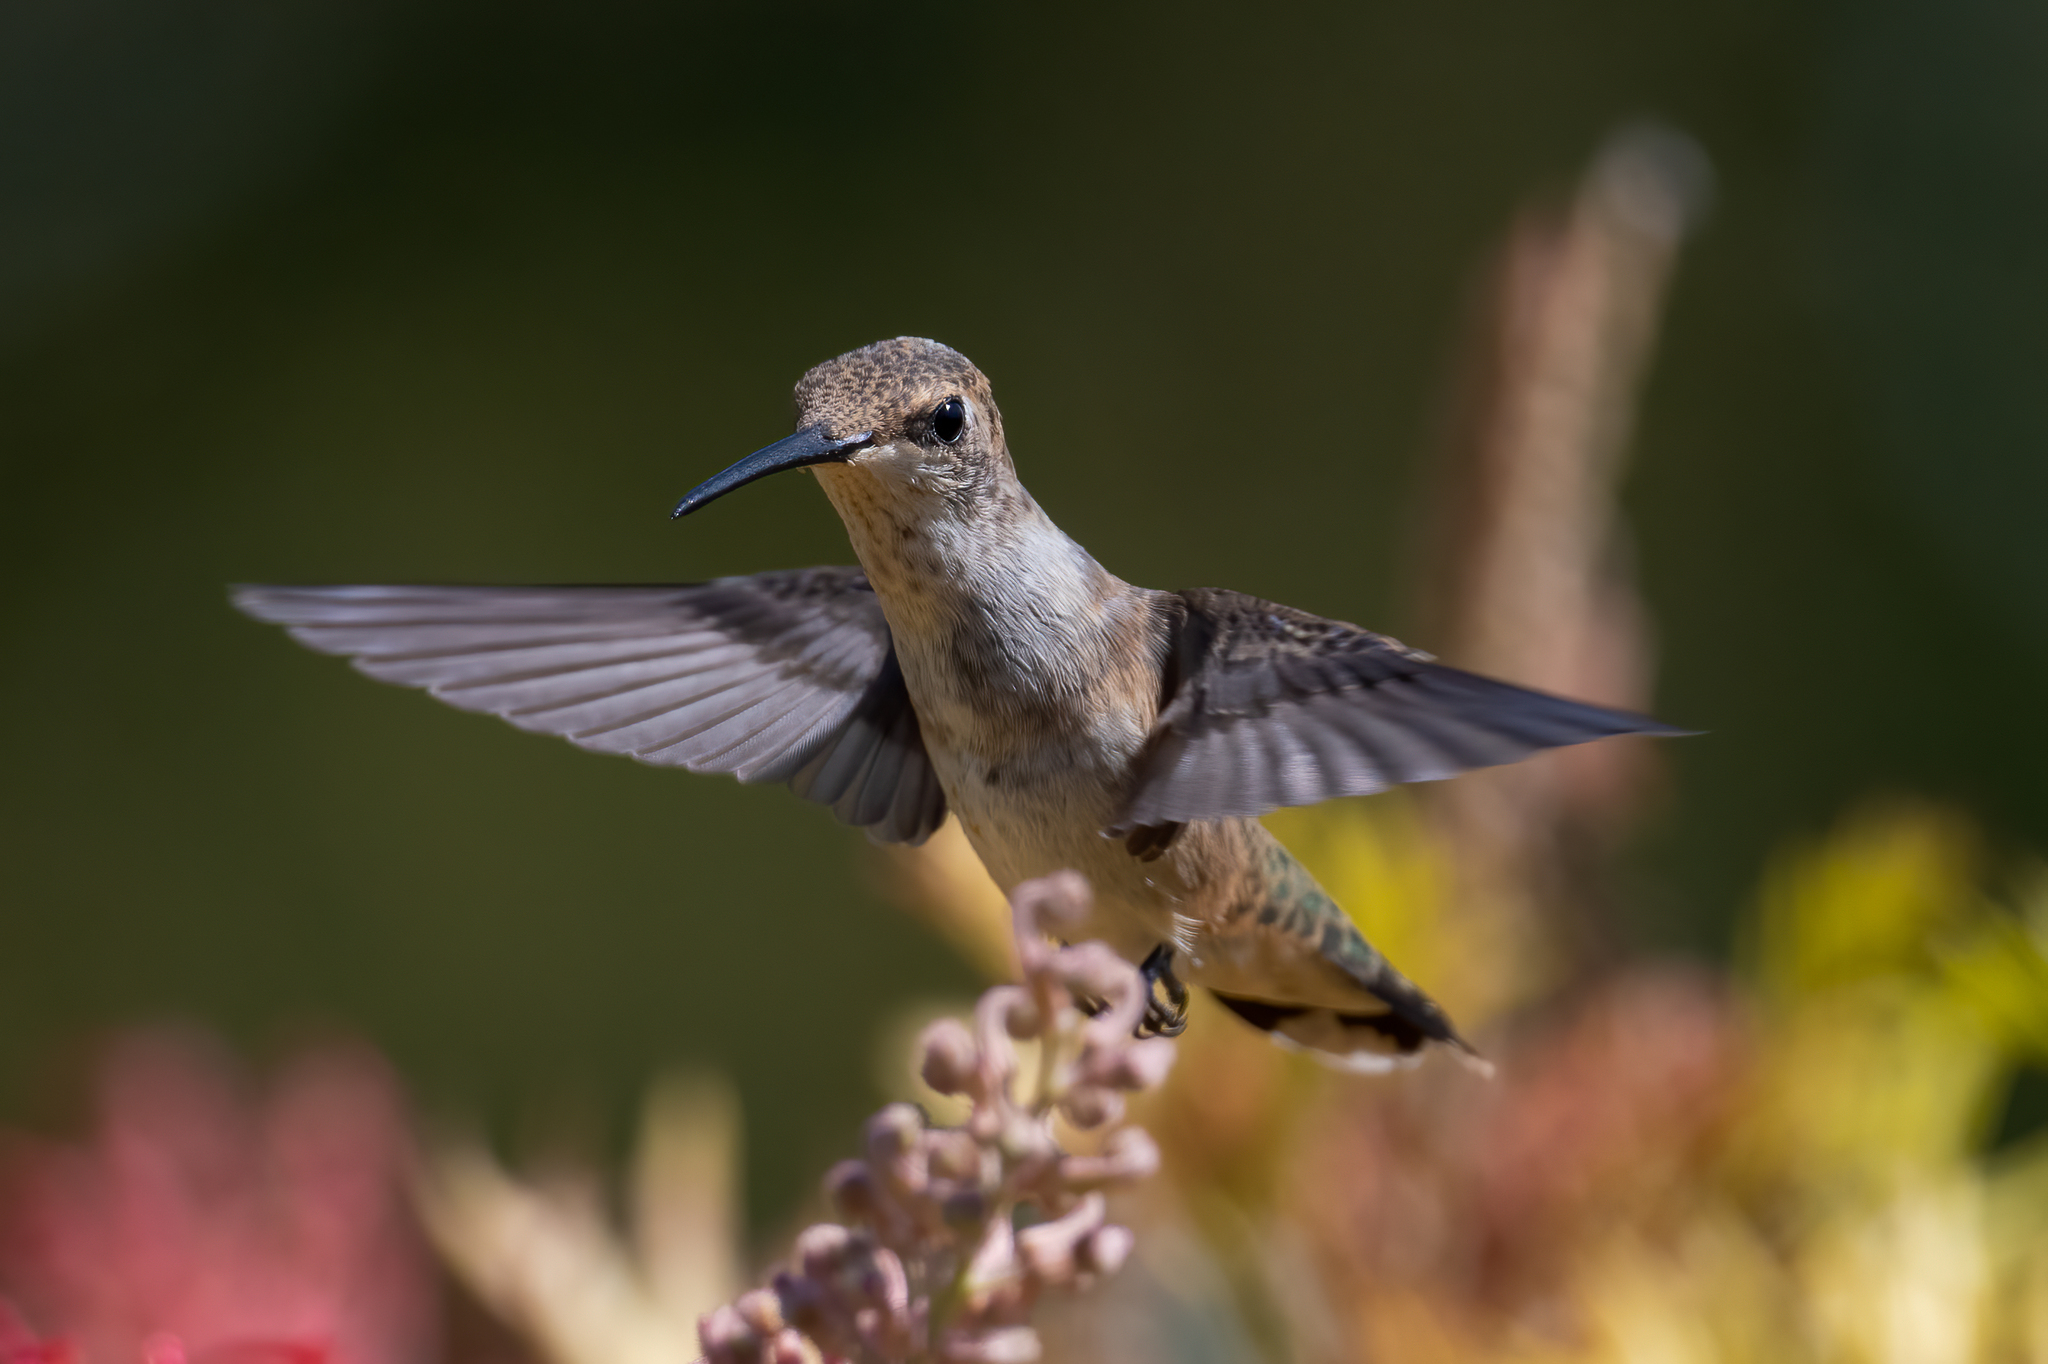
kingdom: Animalia
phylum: Chordata
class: Aves
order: Apodiformes
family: Trochilidae
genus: Archilochus
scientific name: Archilochus alexandri
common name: Black-chinned hummingbird
